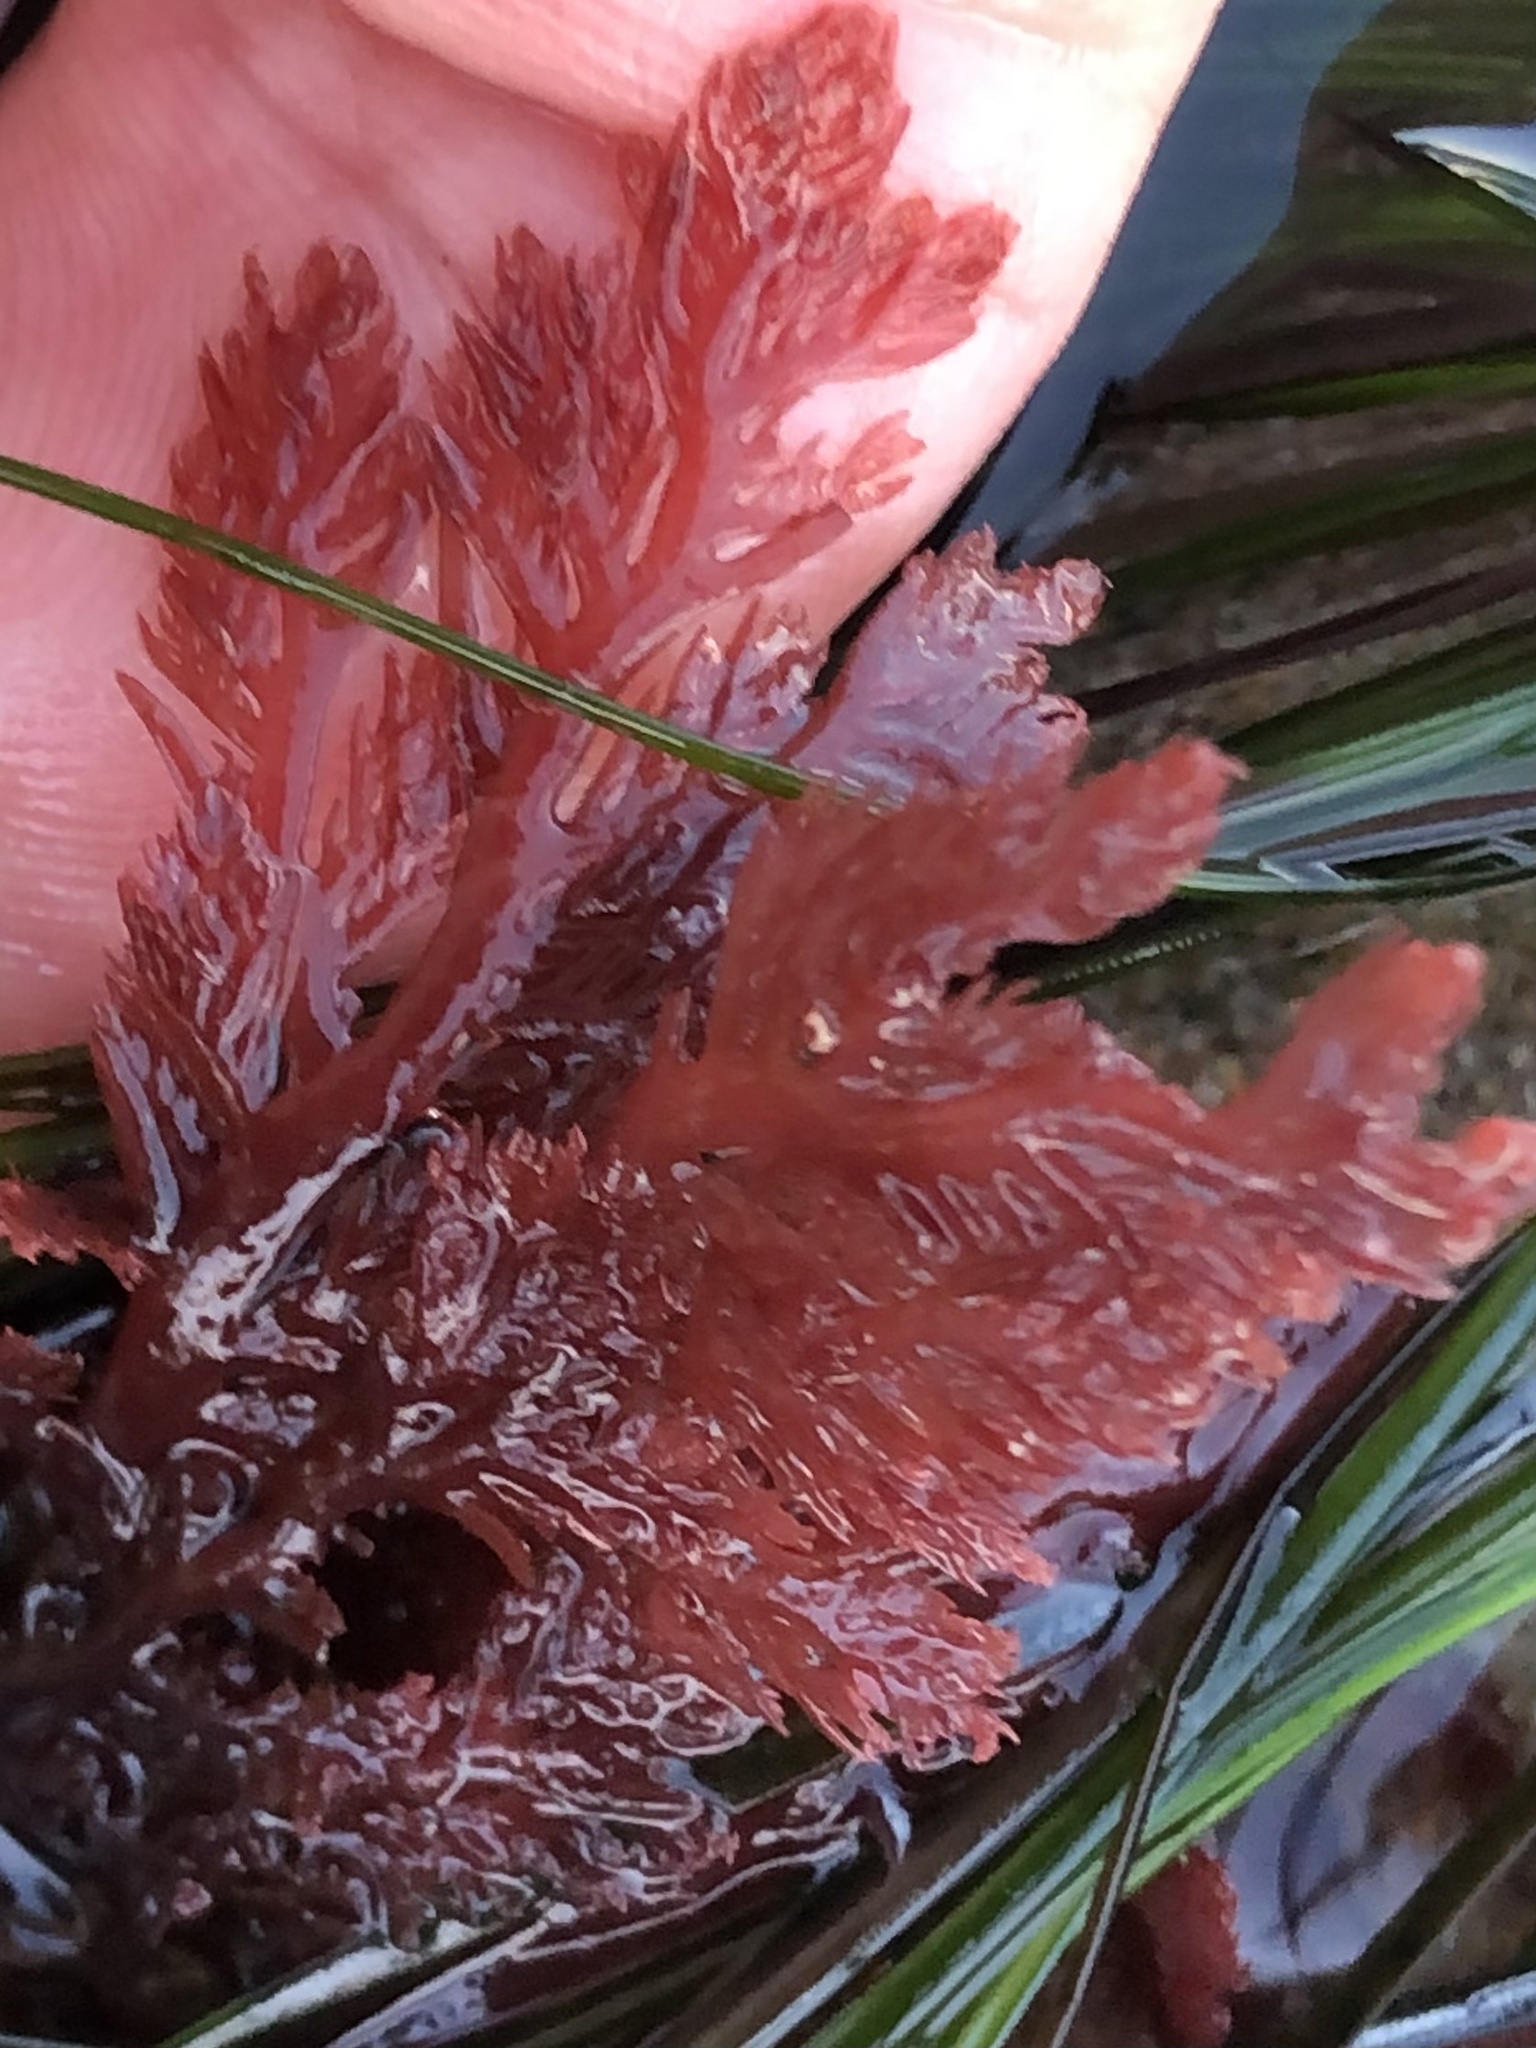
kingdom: Plantae
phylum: Rhodophyta
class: Florideophyceae
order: Plocamiales
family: Plocamiaceae
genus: Plocamium
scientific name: Plocamium cartilagineum
